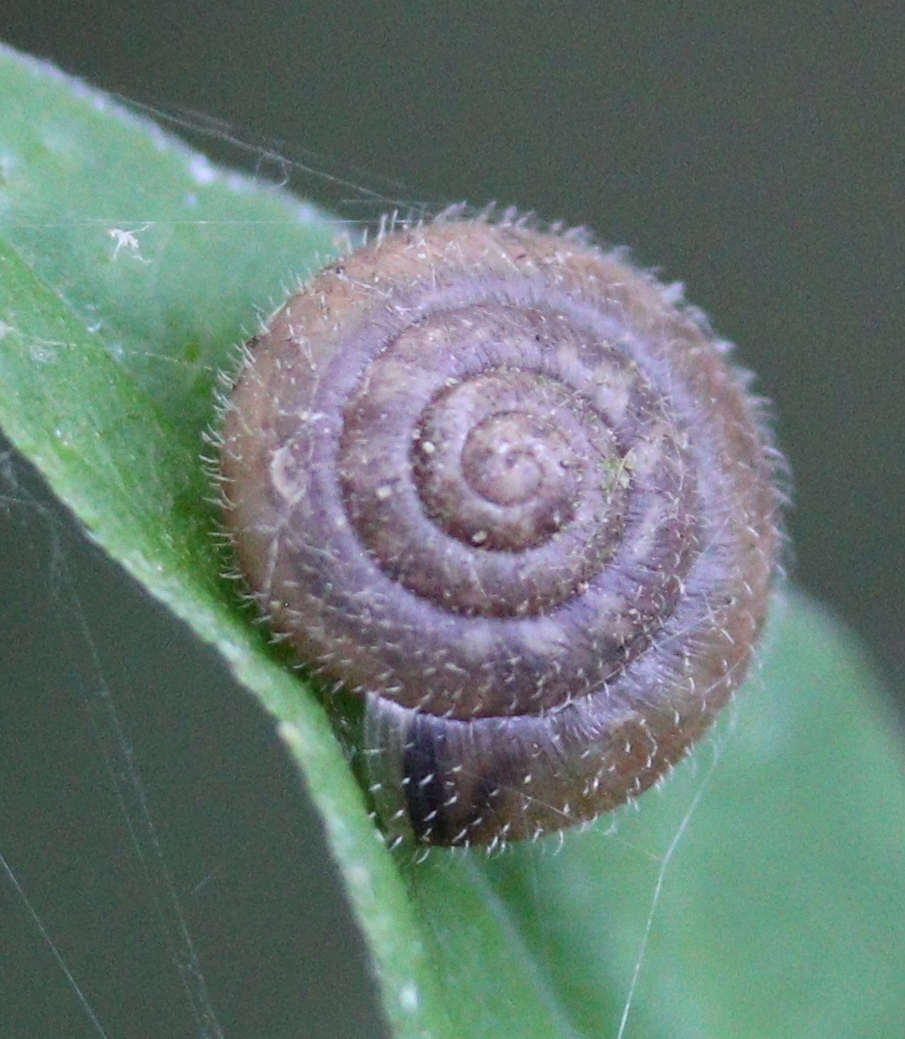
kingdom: Animalia
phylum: Mollusca
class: Gastropoda
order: Stylommatophora
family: Hygromiidae
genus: Trochulus
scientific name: Trochulus hispidus
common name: Hairy snail
